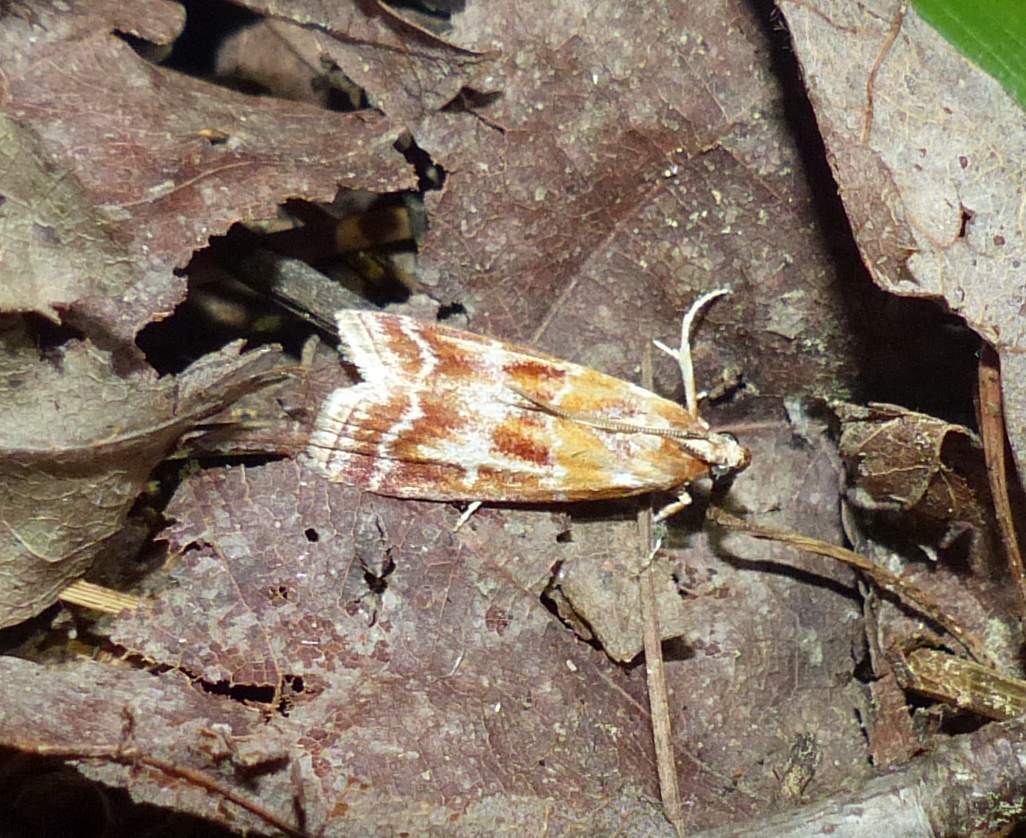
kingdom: Animalia
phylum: Arthropoda
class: Insecta
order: Lepidoptera
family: Pyralidae
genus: Dioryctria
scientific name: Dioryctria disclusa
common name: Rusty pine cone moth
